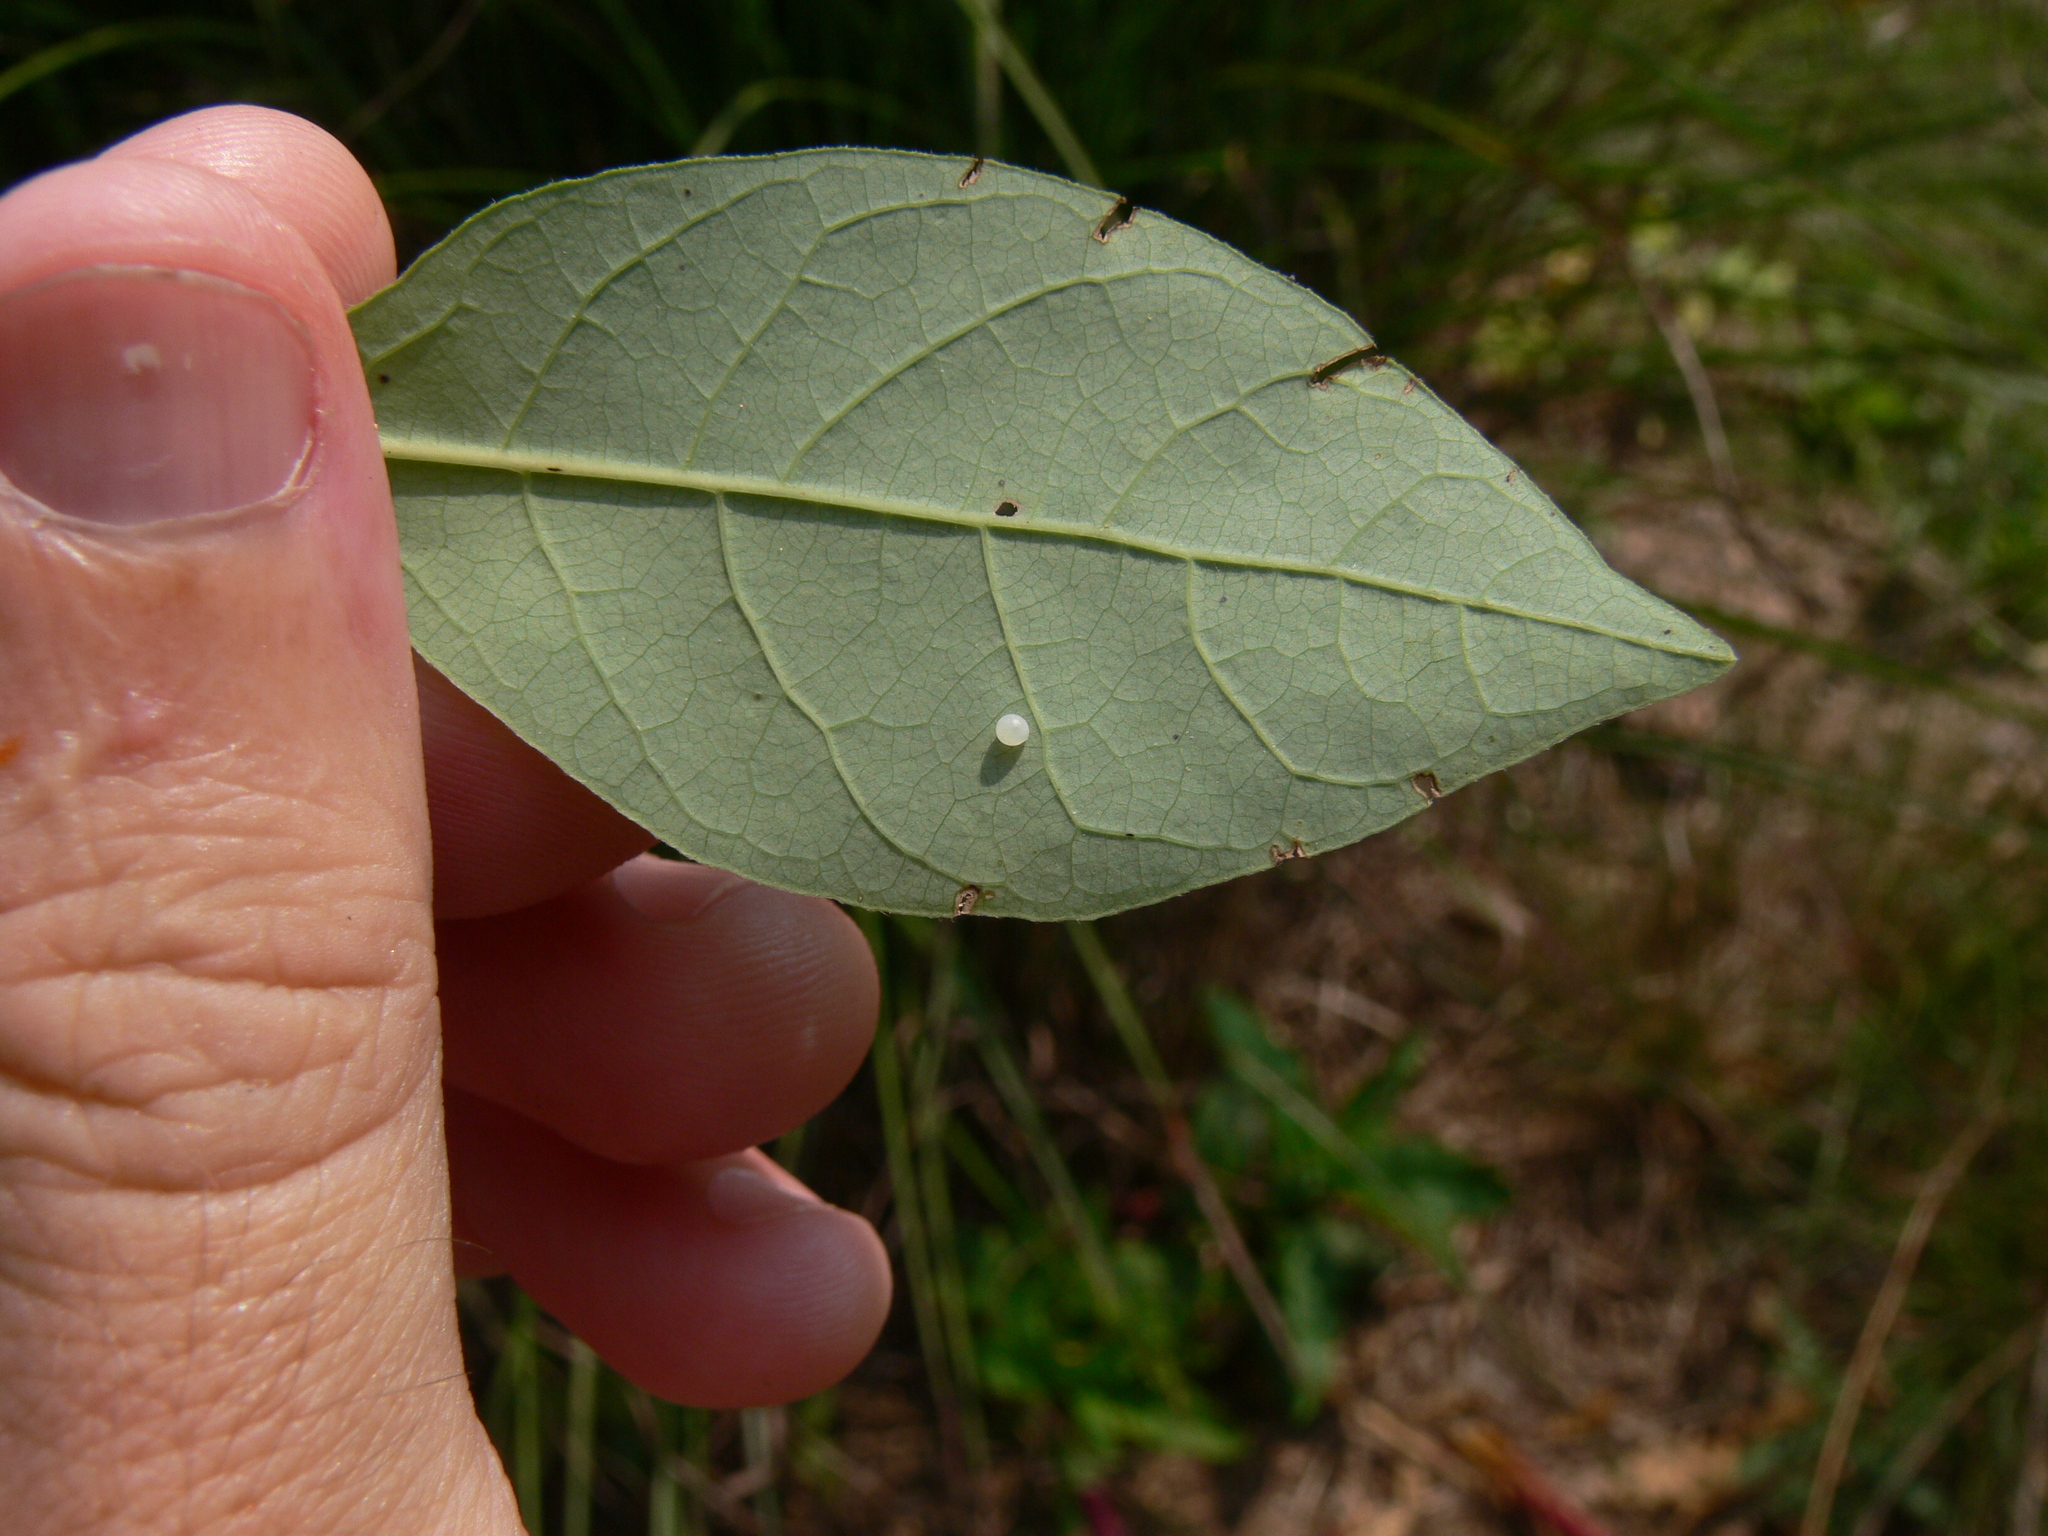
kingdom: Animalia
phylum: Arthropoda
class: Insecta
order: Lepidoptera
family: Papilionidae
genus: Papilio
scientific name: Papilio troilus
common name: Spicebush swallowtail
